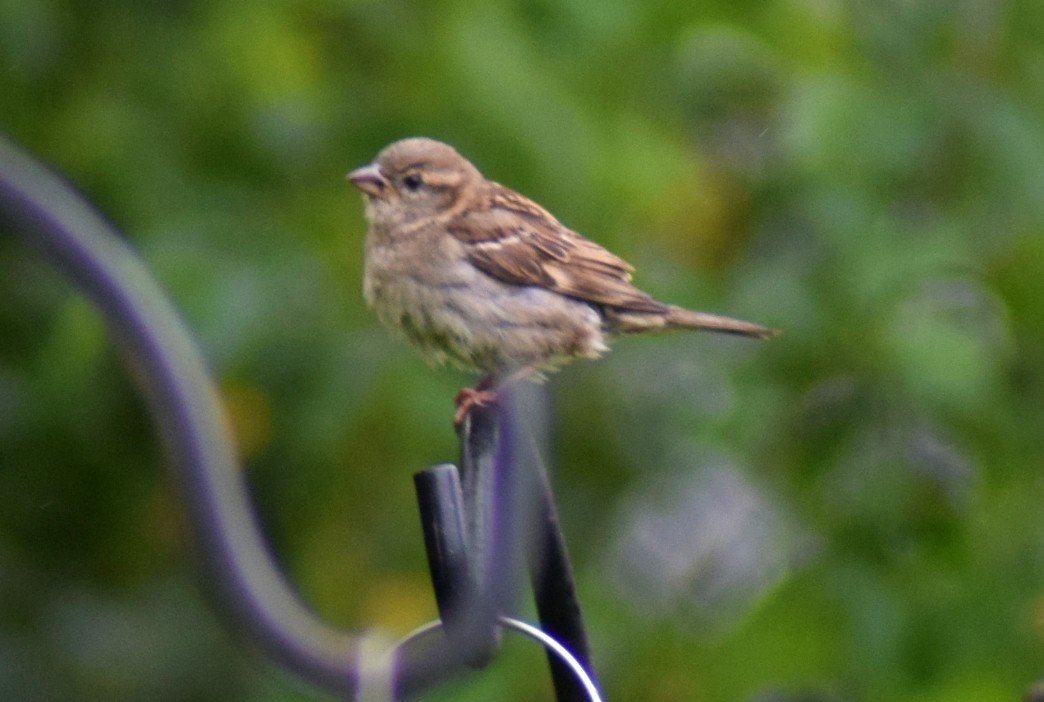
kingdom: Animalia
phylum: Chordata
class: Aves
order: Passeriformes
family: Passeridae
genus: Passer
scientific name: Passer domesticus
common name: House sparrow
